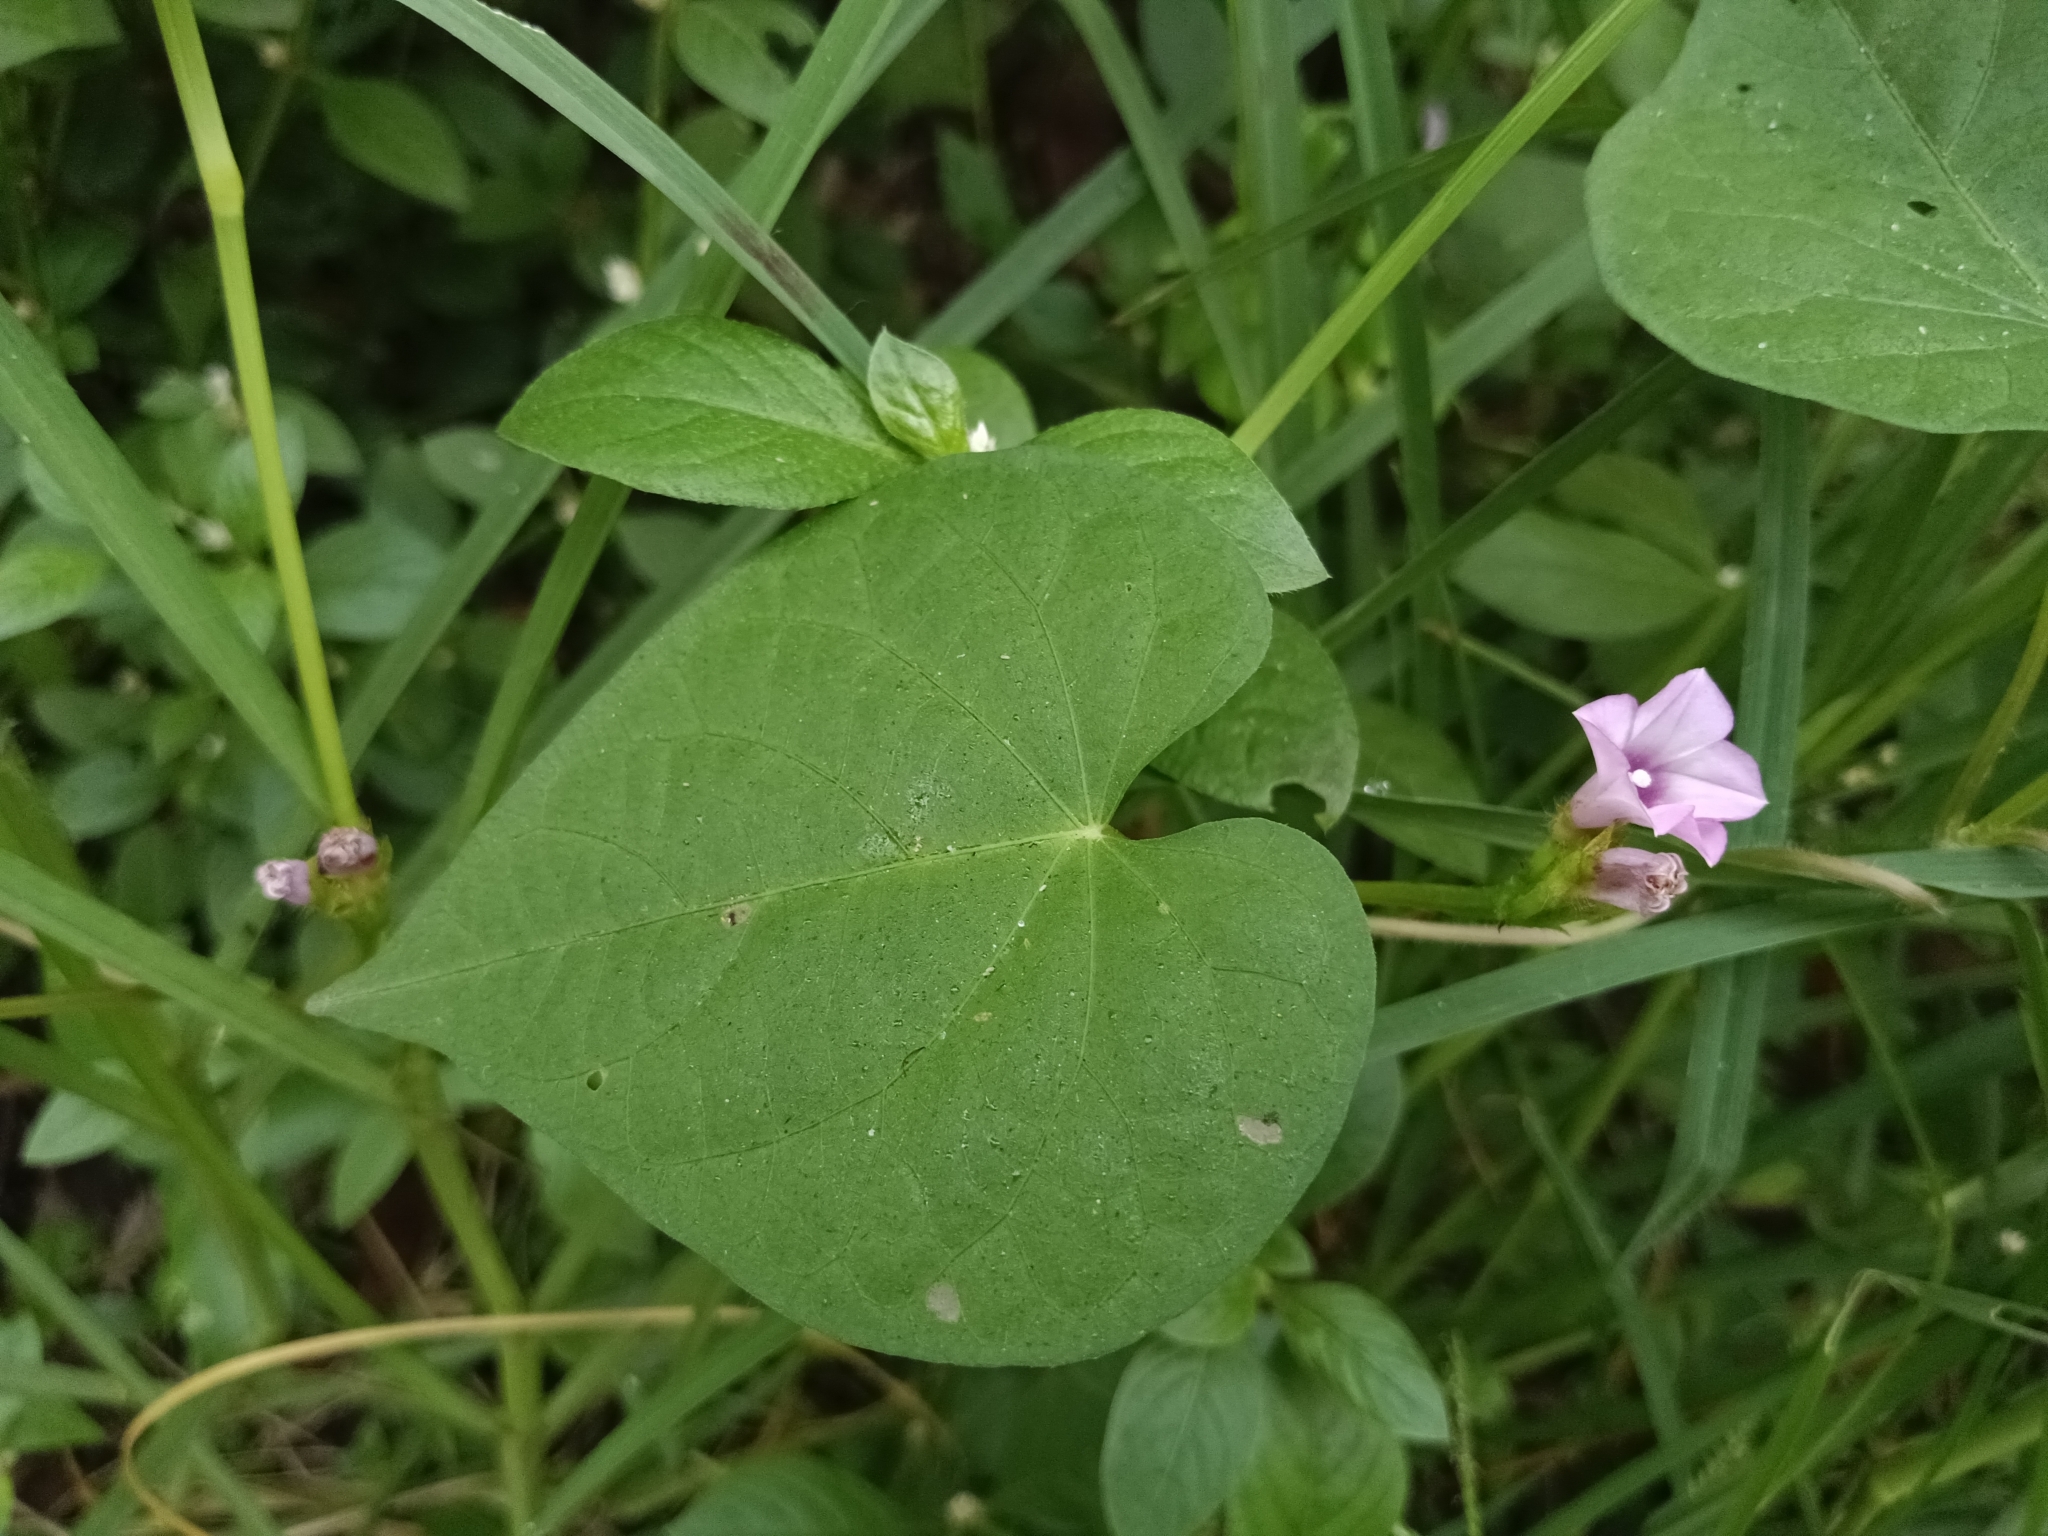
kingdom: Plantae
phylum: Tracheophyta
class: Magnoliopsida
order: Solanales
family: Convolvulaceae
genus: Ipomoea
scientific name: Ipomoea triloba
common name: Little-bell
